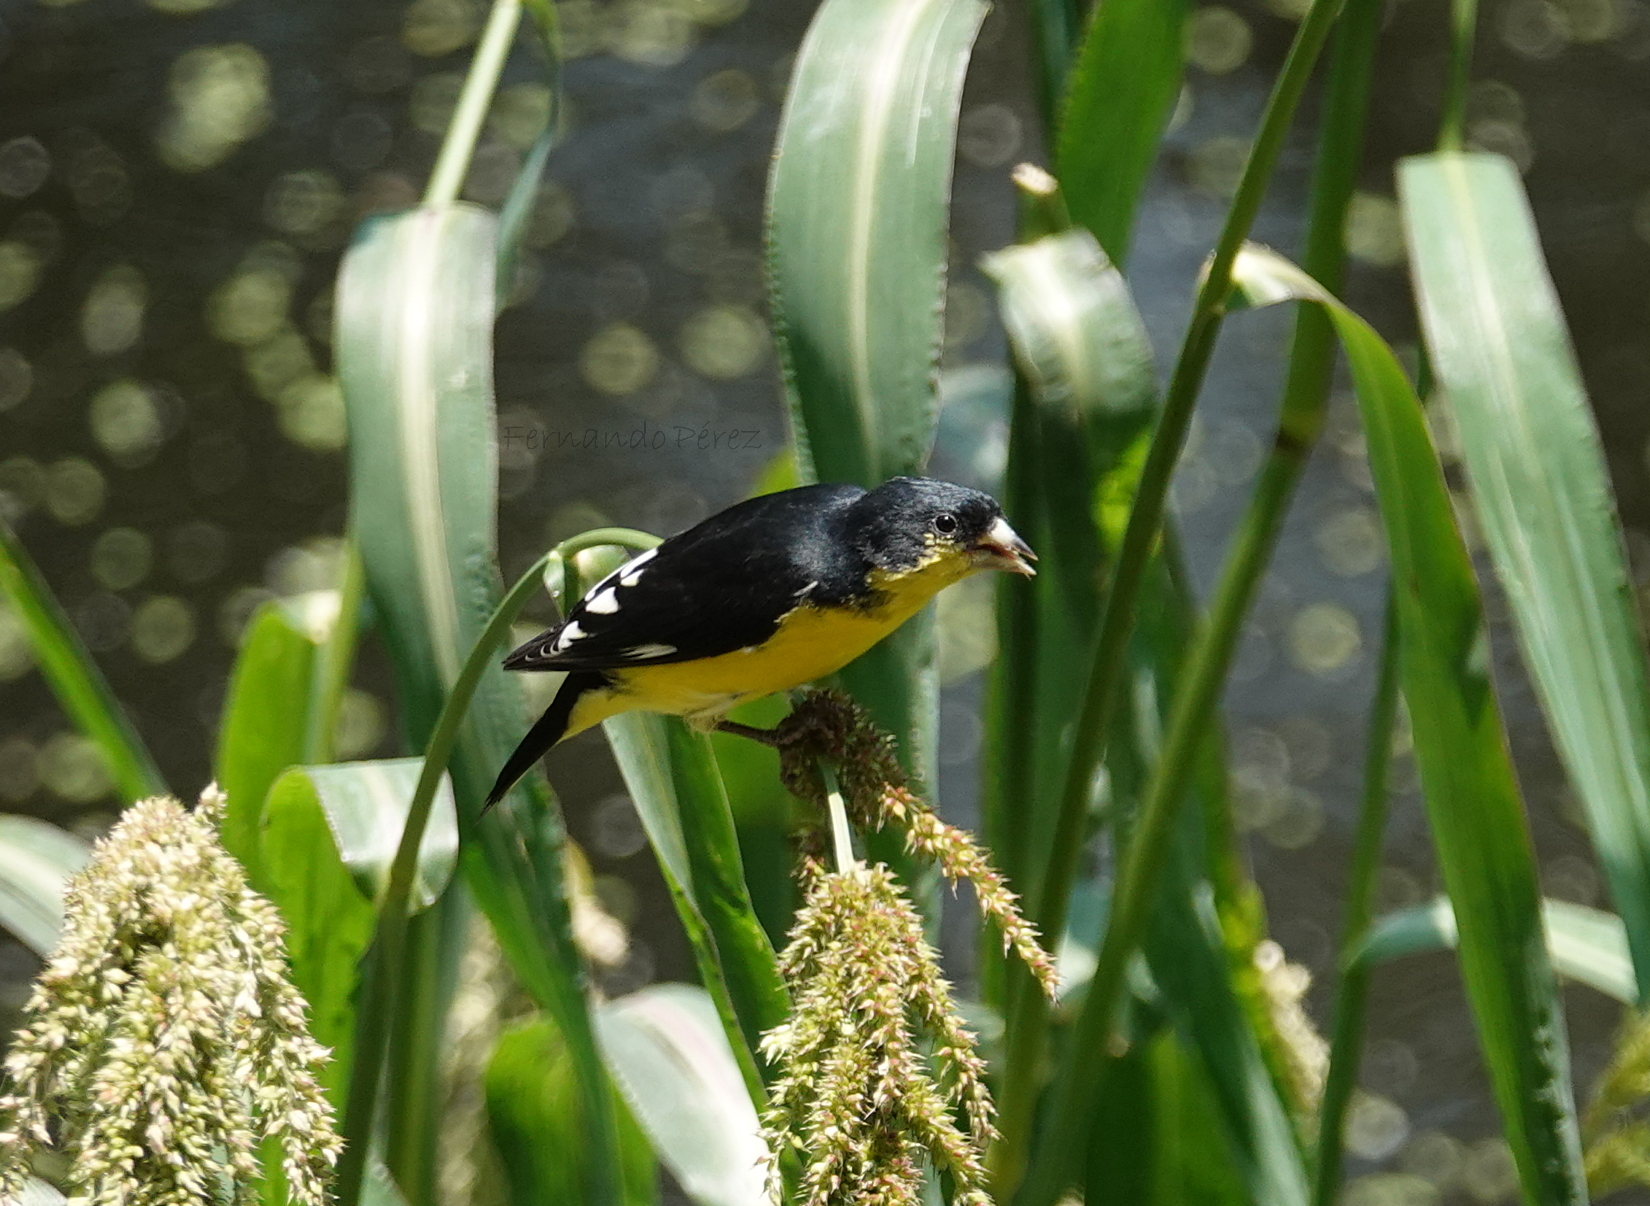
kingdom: Animalia
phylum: Chordata
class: Aves
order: Passeriformes
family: Fringillidae
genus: Spinus
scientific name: Spinus psaltria
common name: Lesser goldfinch
